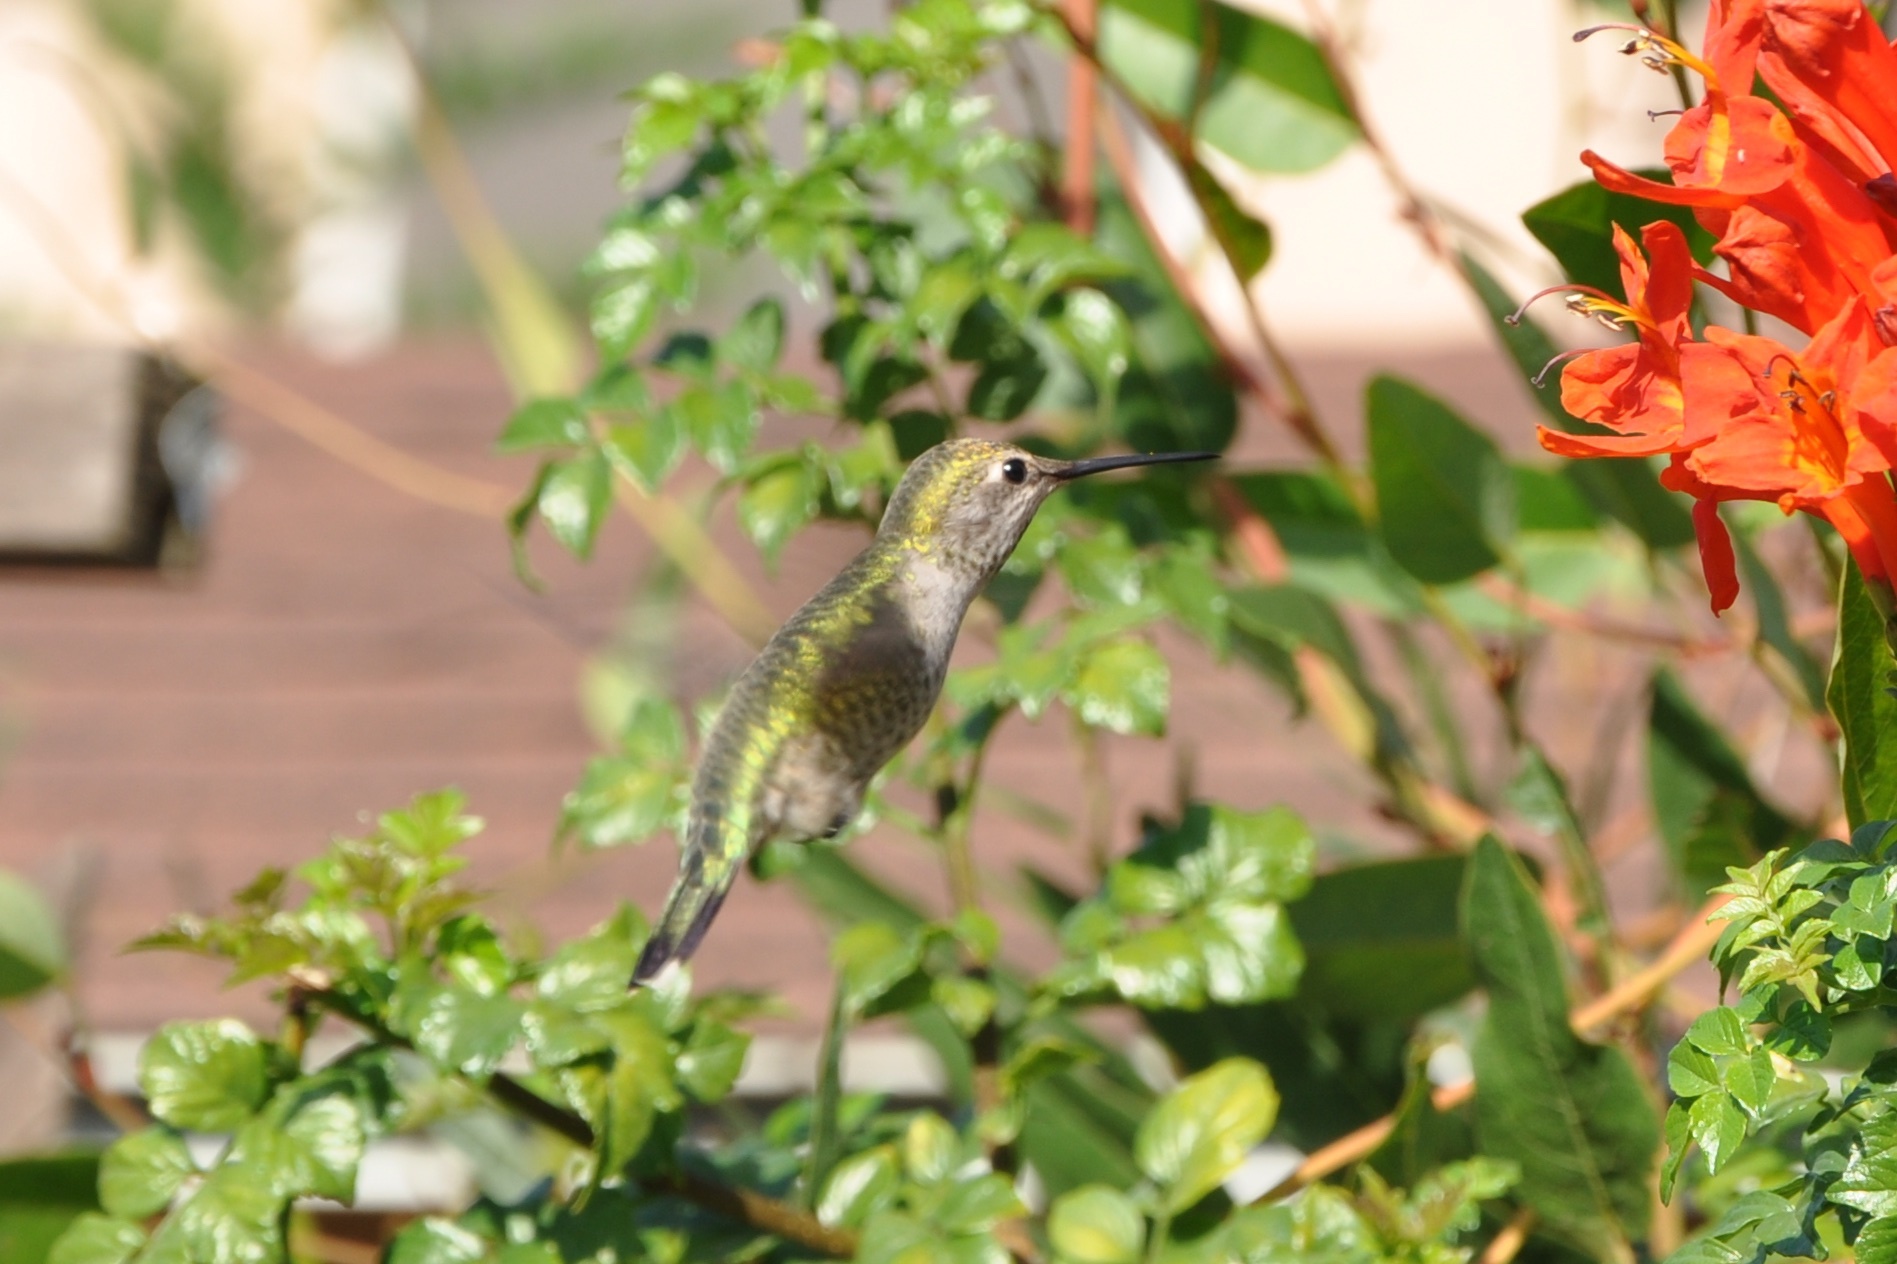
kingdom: Animalia
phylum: Chordata
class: Aves
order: Apodiformes
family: Trochilidae
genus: Calypte
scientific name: Calypte anna
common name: Anna's hummingbird
